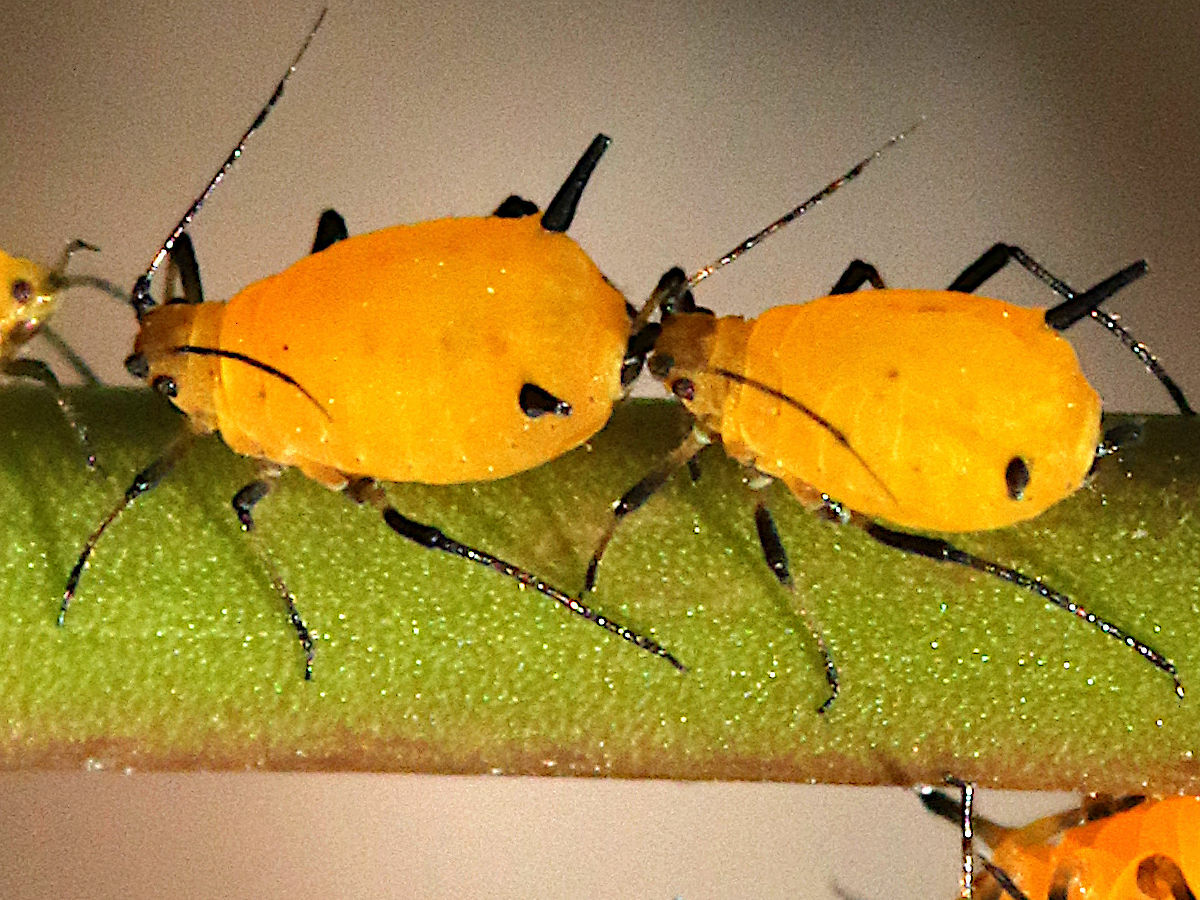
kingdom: Animalia
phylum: Arthropoda
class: Insecta
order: Hemiptera
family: Aphididae
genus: Aphis
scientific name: Aphis nerii
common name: Oleander aphid
